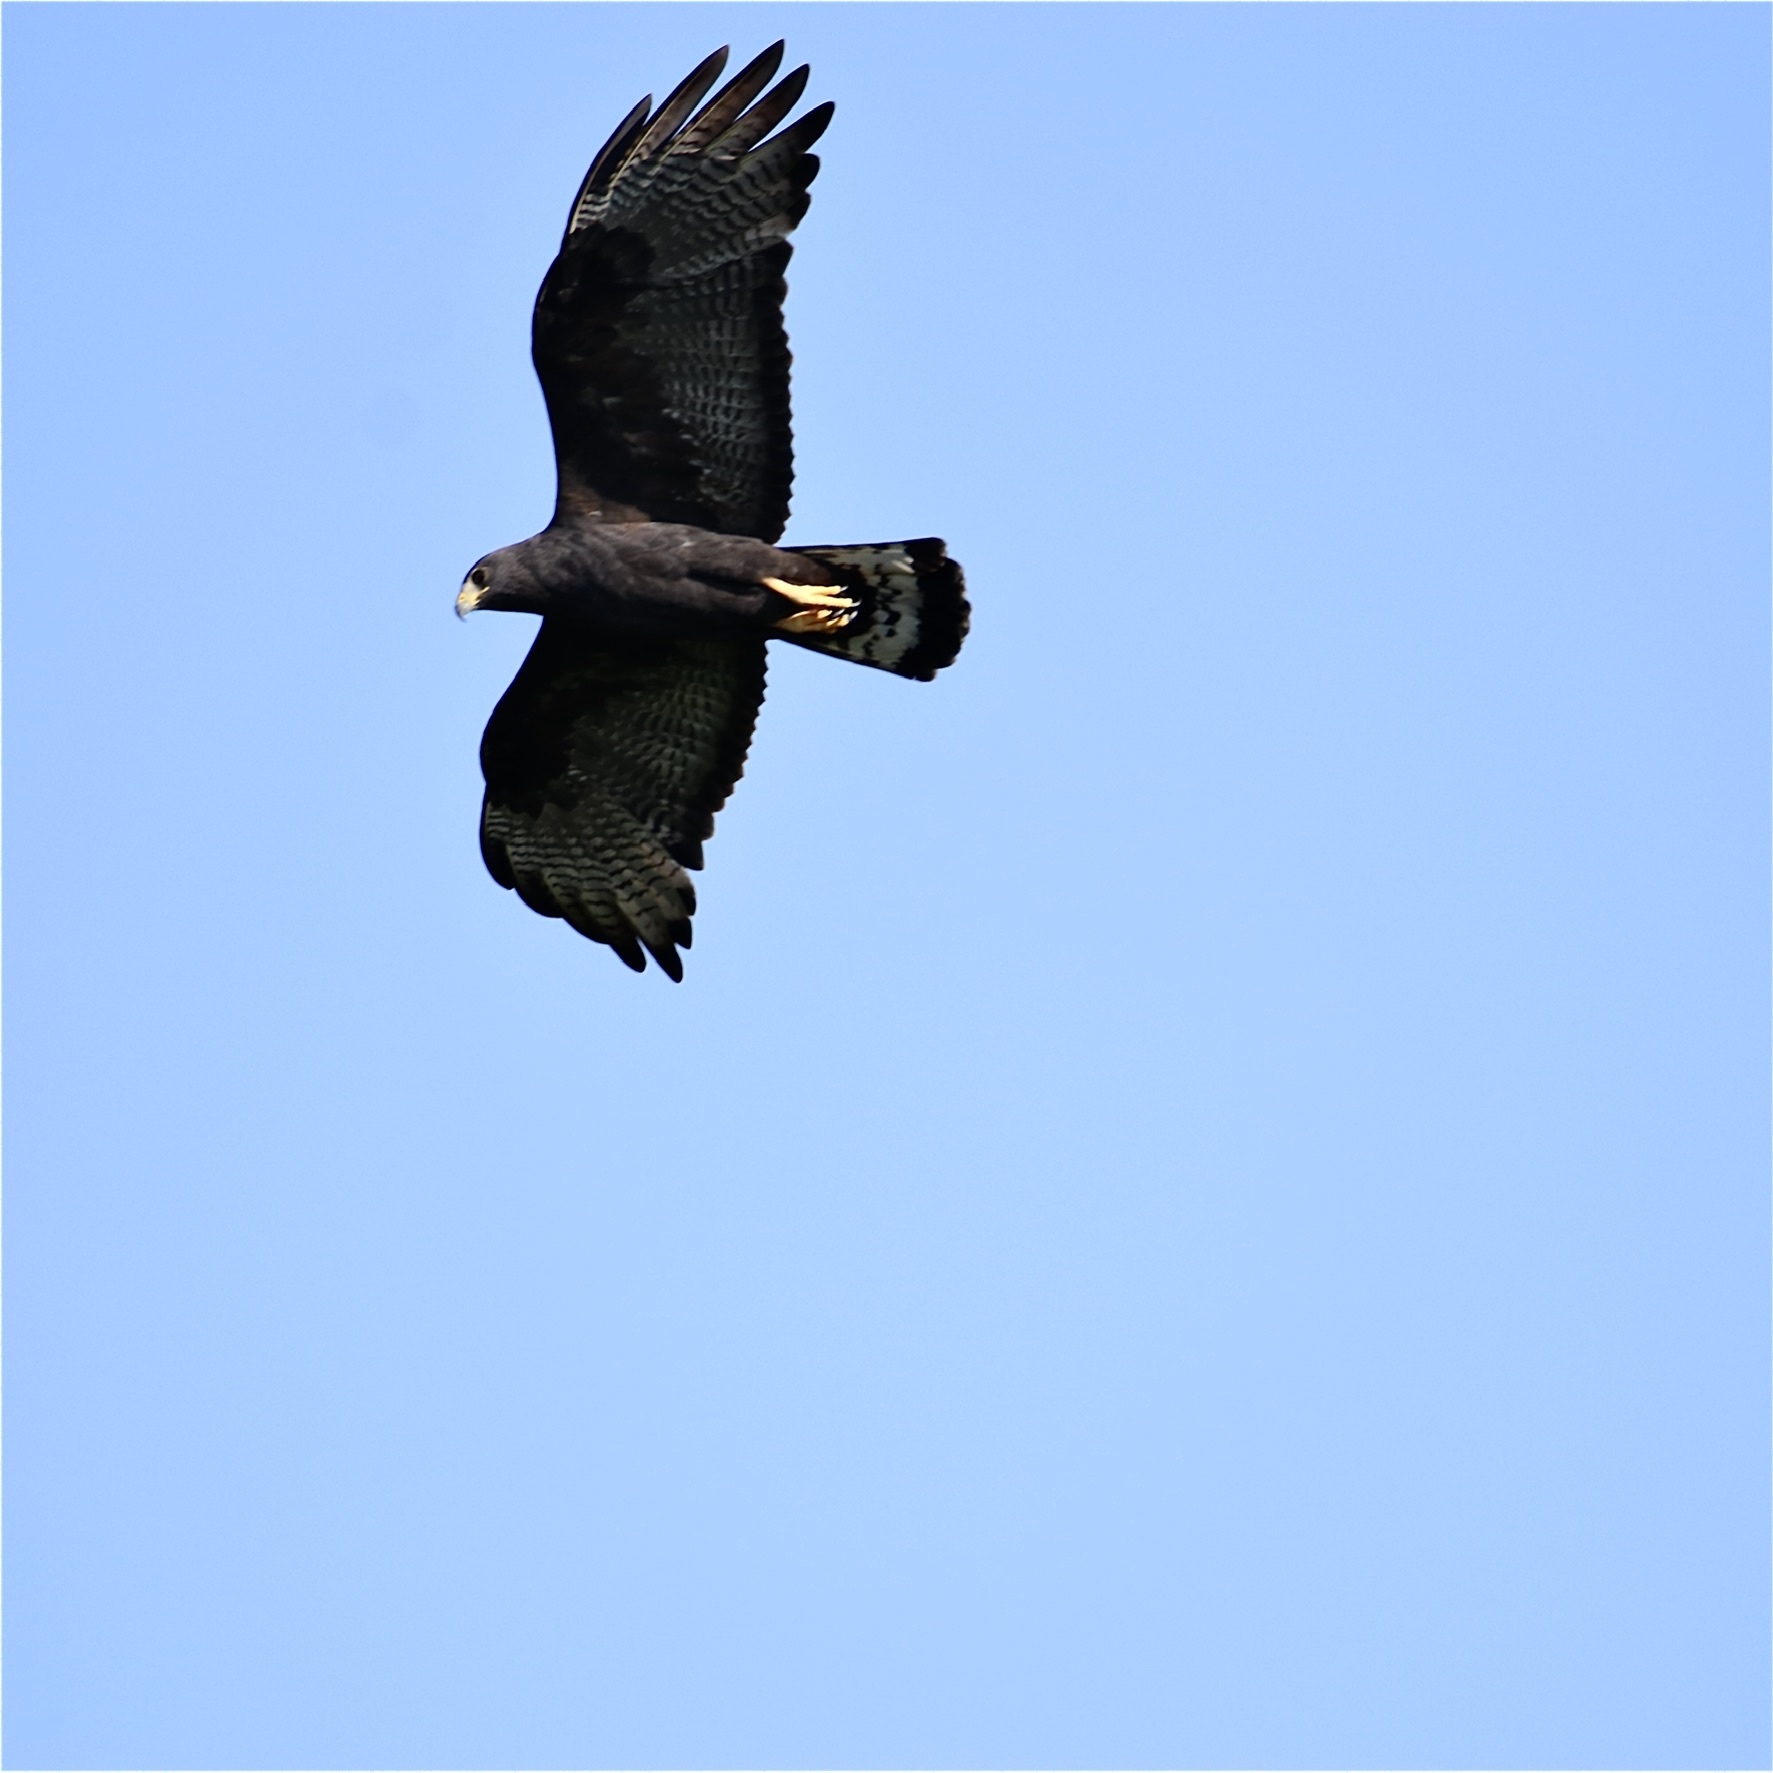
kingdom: Animalia
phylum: Chordata
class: Aves
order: Accipitriformes
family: Accipitridae
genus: Buteo
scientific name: Buteo albonotatus
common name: Zone-tailed hawk
